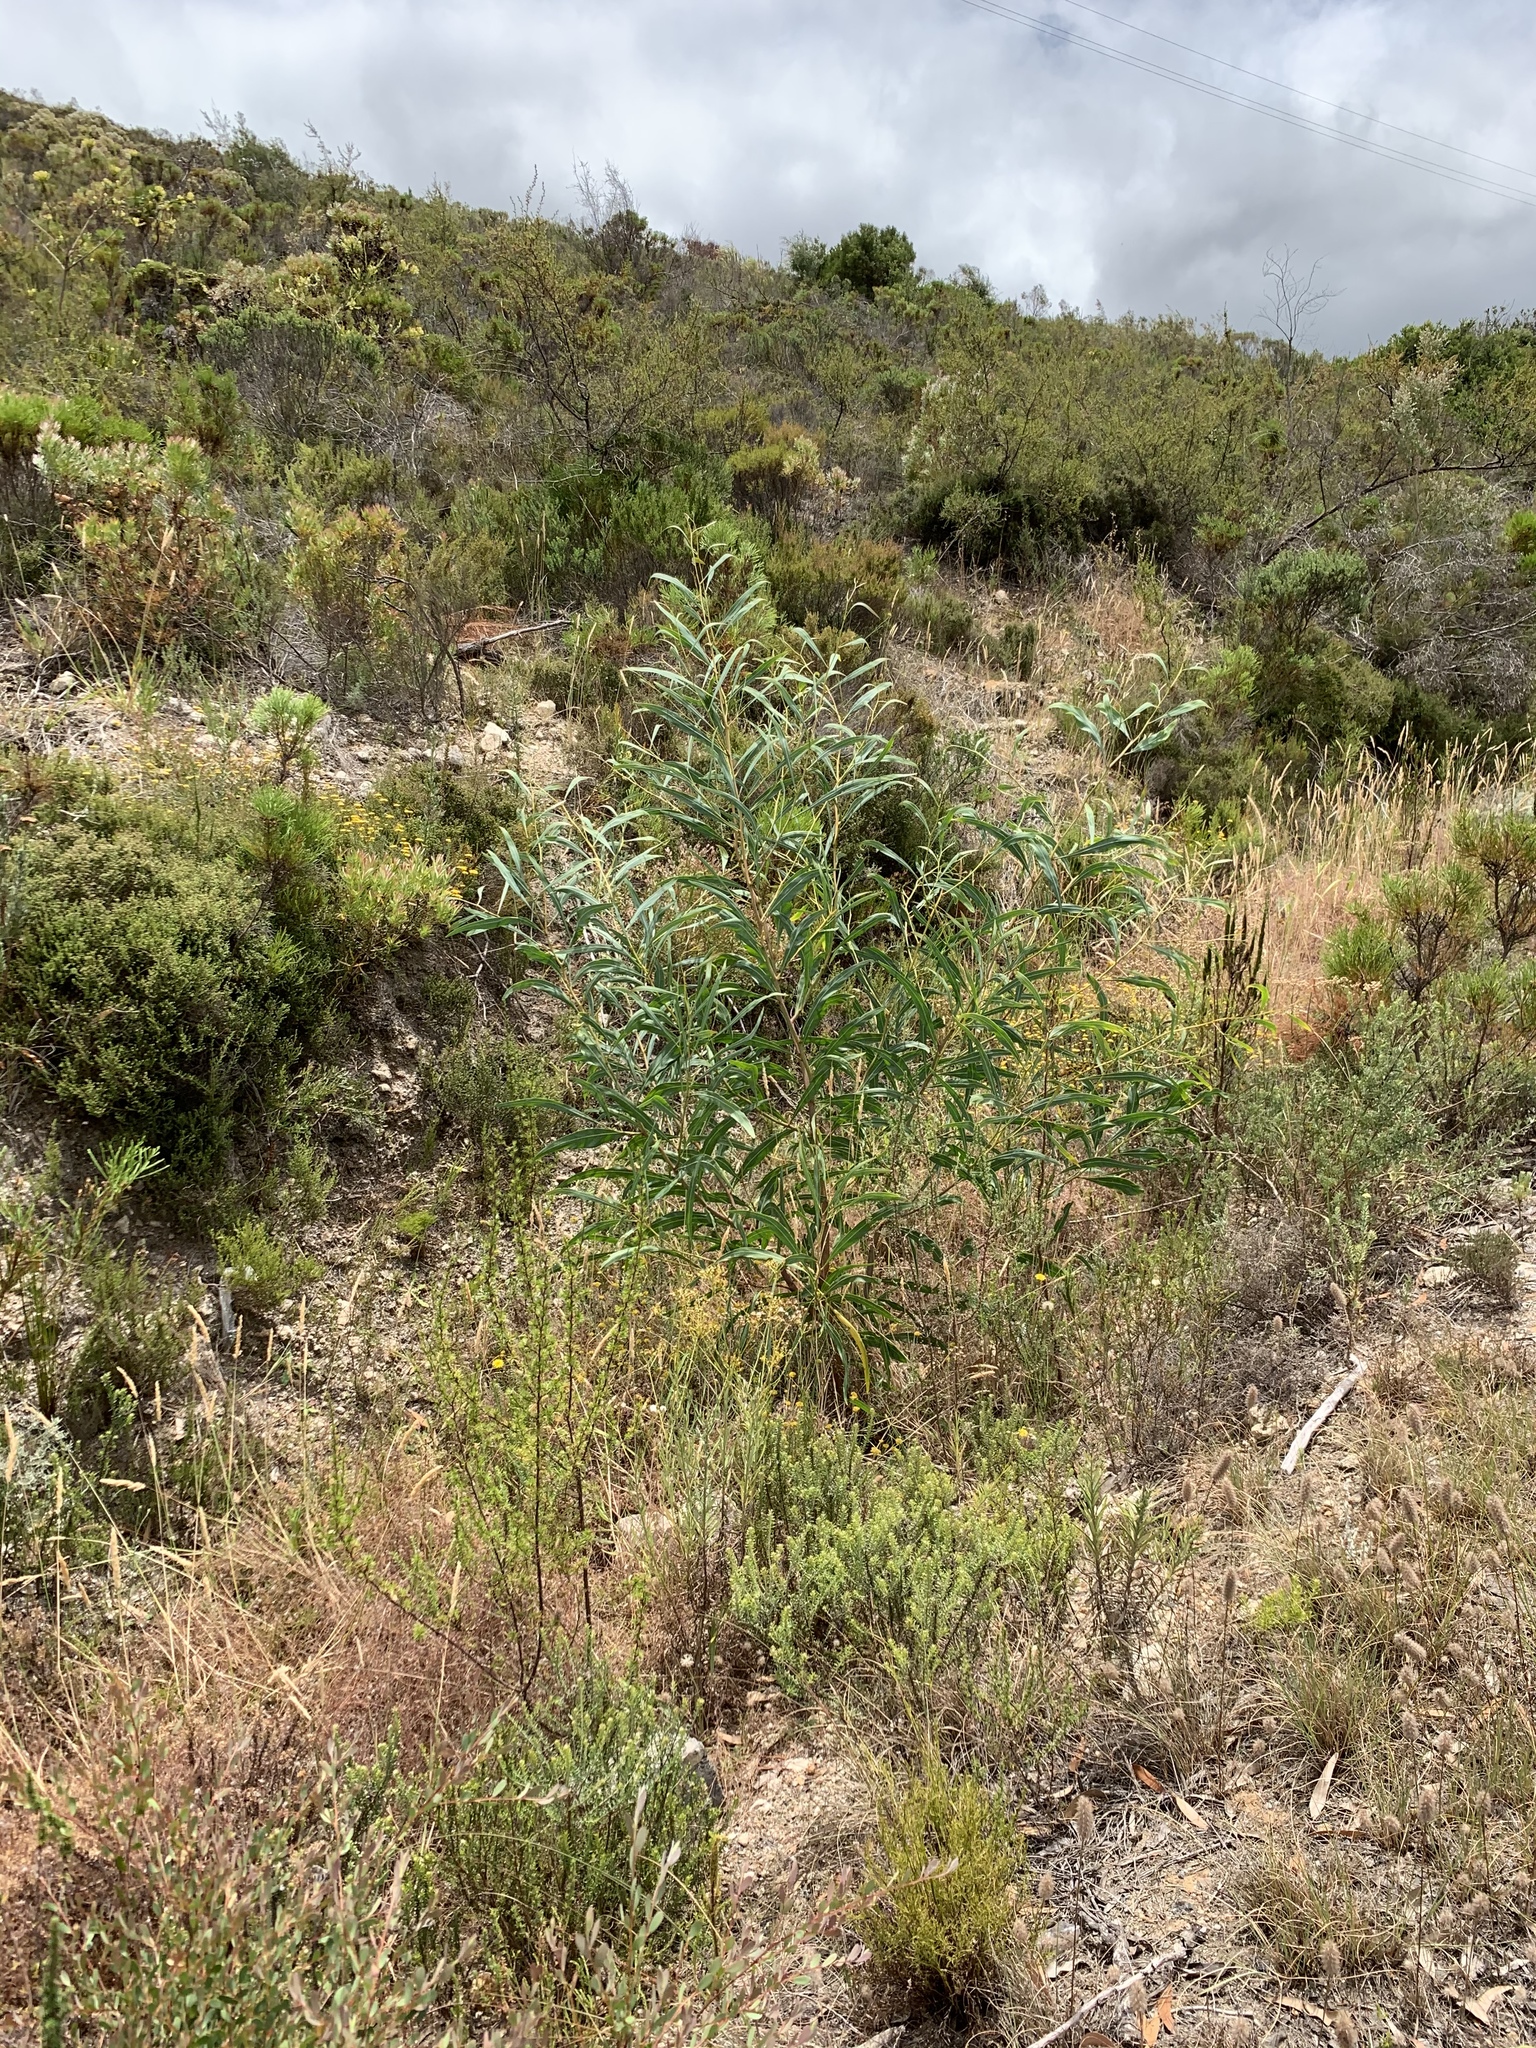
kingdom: Plantae
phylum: Tracheophyta
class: Magnoliopsida
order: Fabales
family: Fabaceae
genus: Acacia
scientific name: Acacia saligna
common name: Orange wattle
